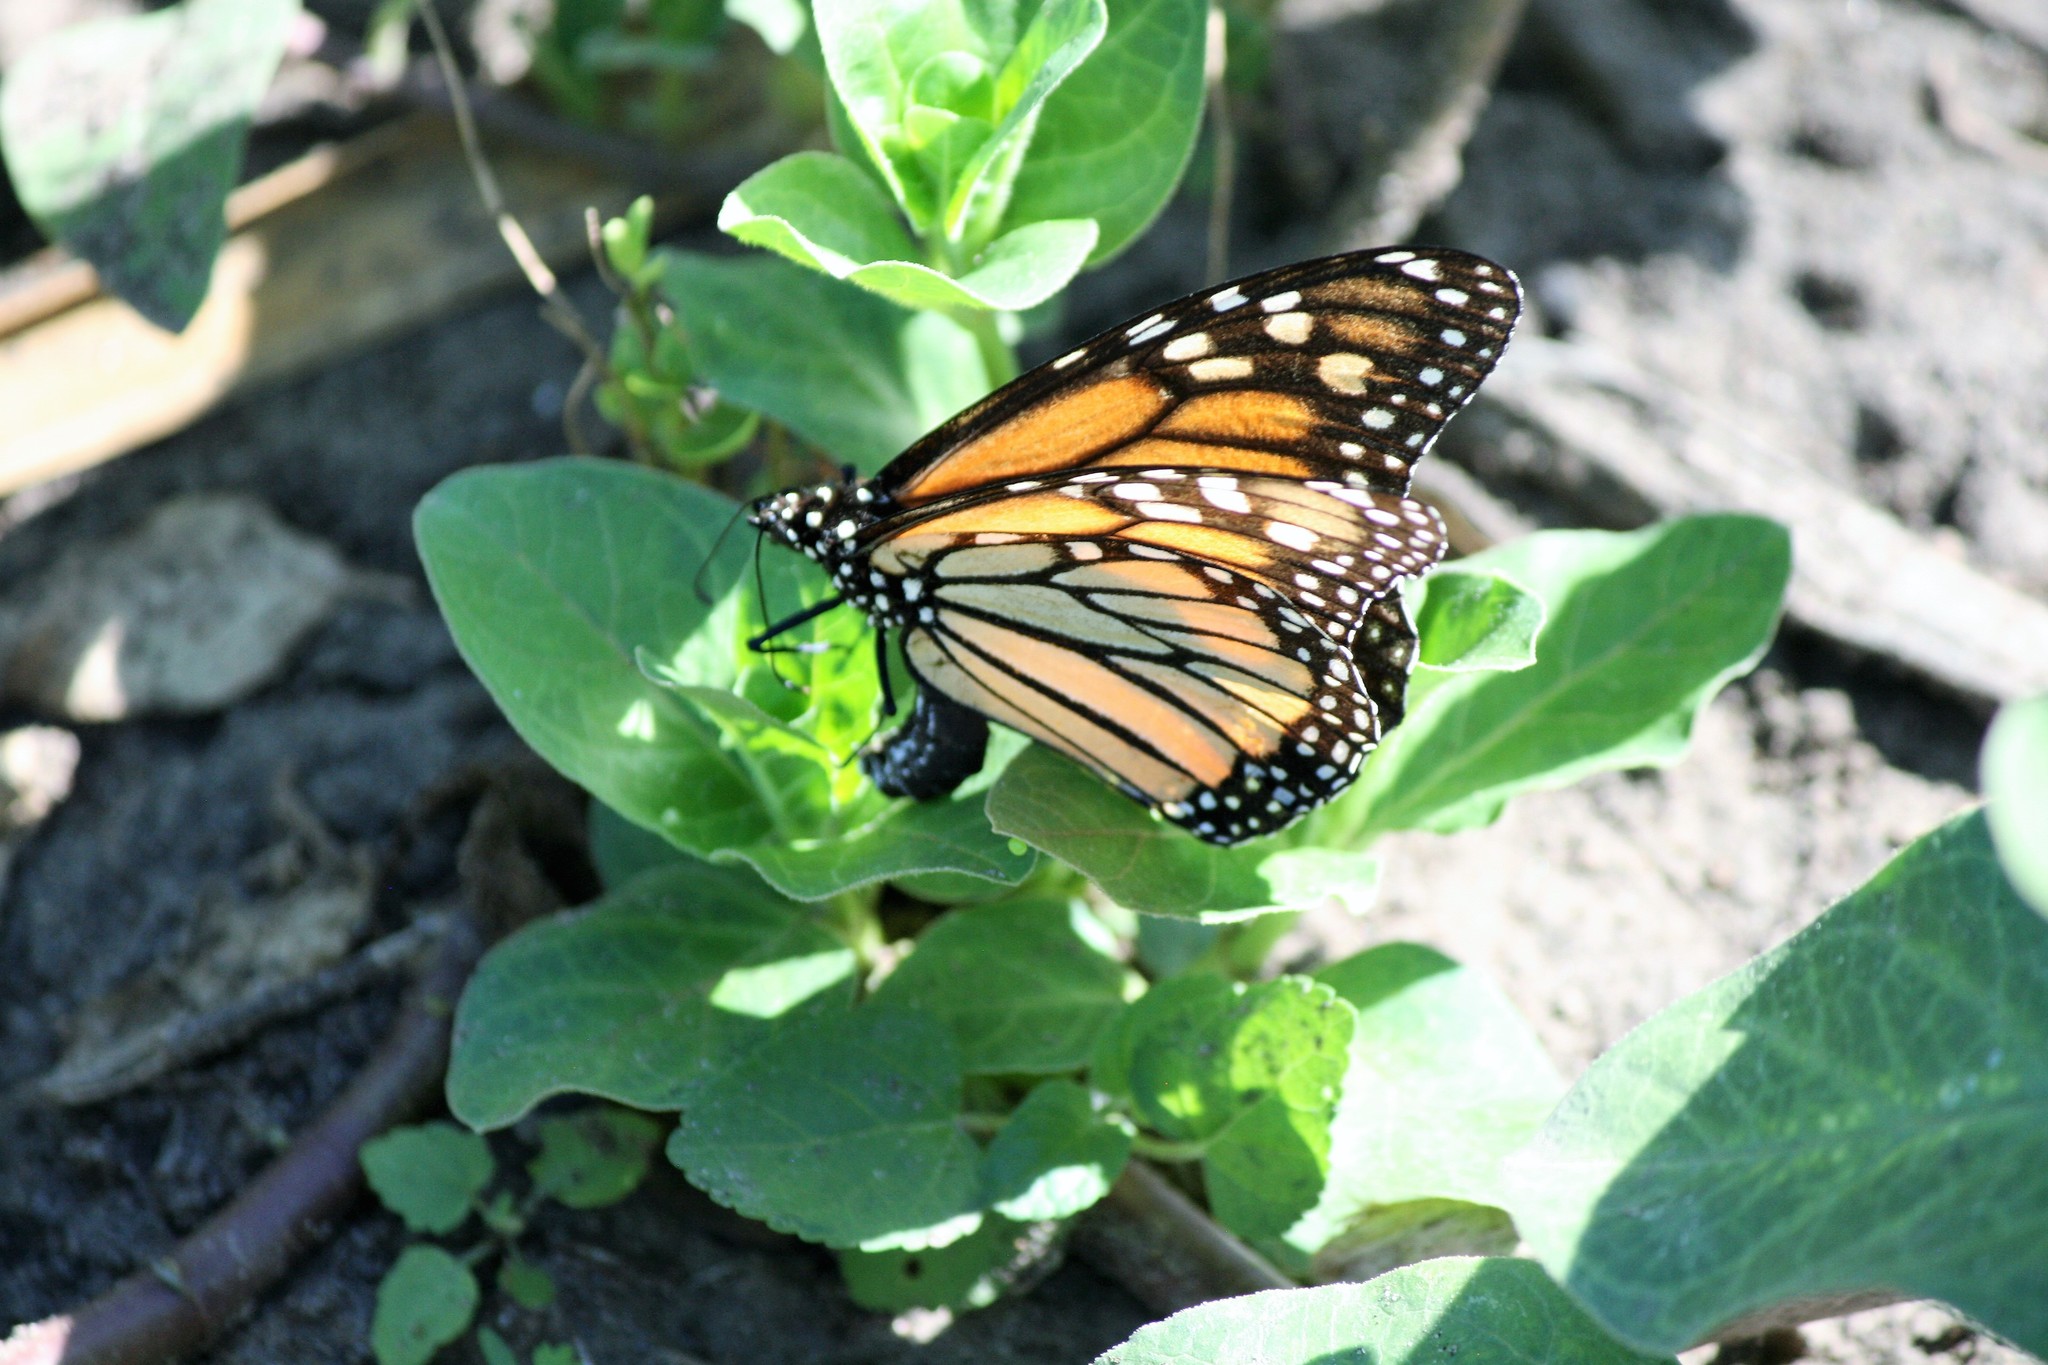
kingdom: Animalia
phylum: Arthropoda
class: Insecta
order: Lepidoptera
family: Nymphalidae
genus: Danaus
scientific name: Danaus plexippus
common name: Monarch
